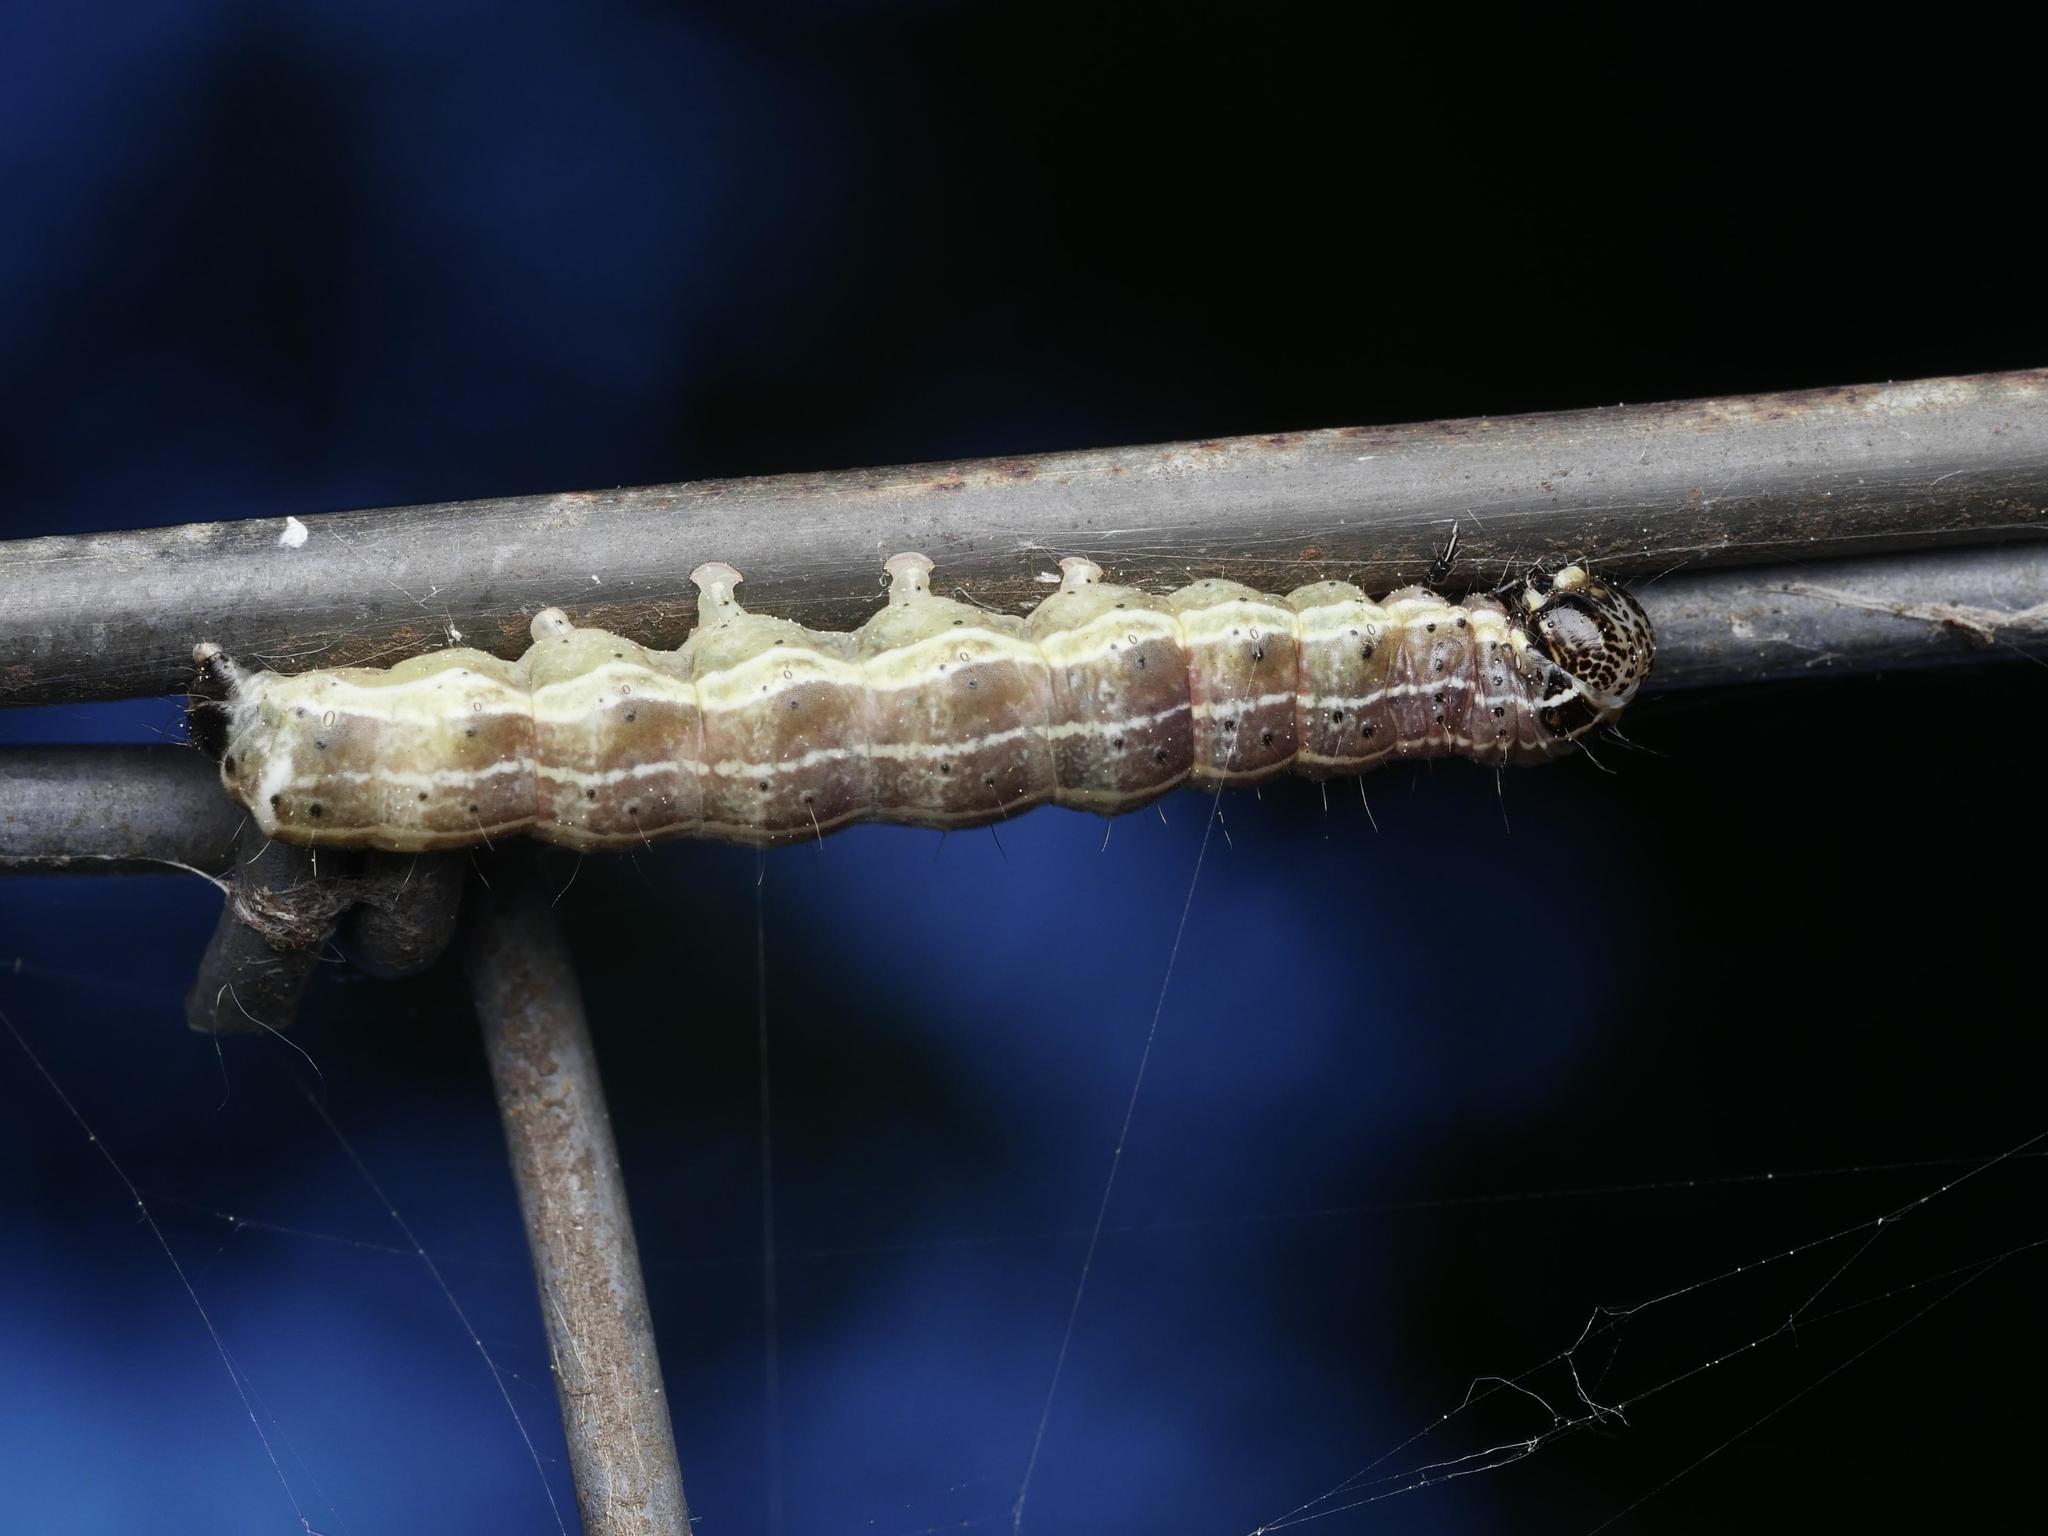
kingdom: Animalia
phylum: Arthropoda
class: Insecta
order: Lepidoptera
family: Noctuidae
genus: Orthosia
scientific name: Orthosia cruda
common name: Small quaker
